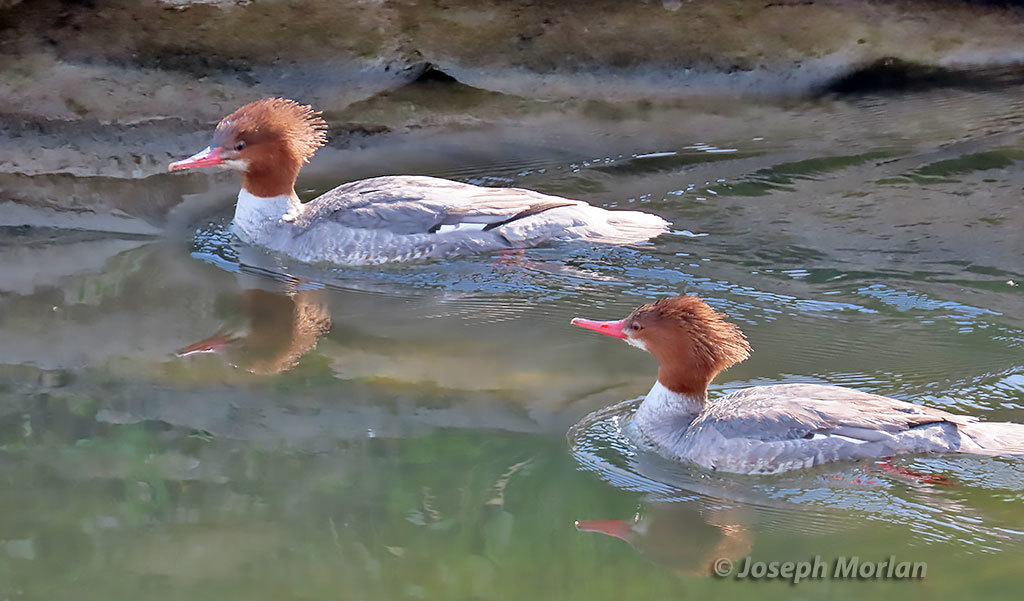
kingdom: Animalia
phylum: Chordata
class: Aves
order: Anseriformes
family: Anatidae
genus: Mergus
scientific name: Mergus merganser
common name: Common merganser
